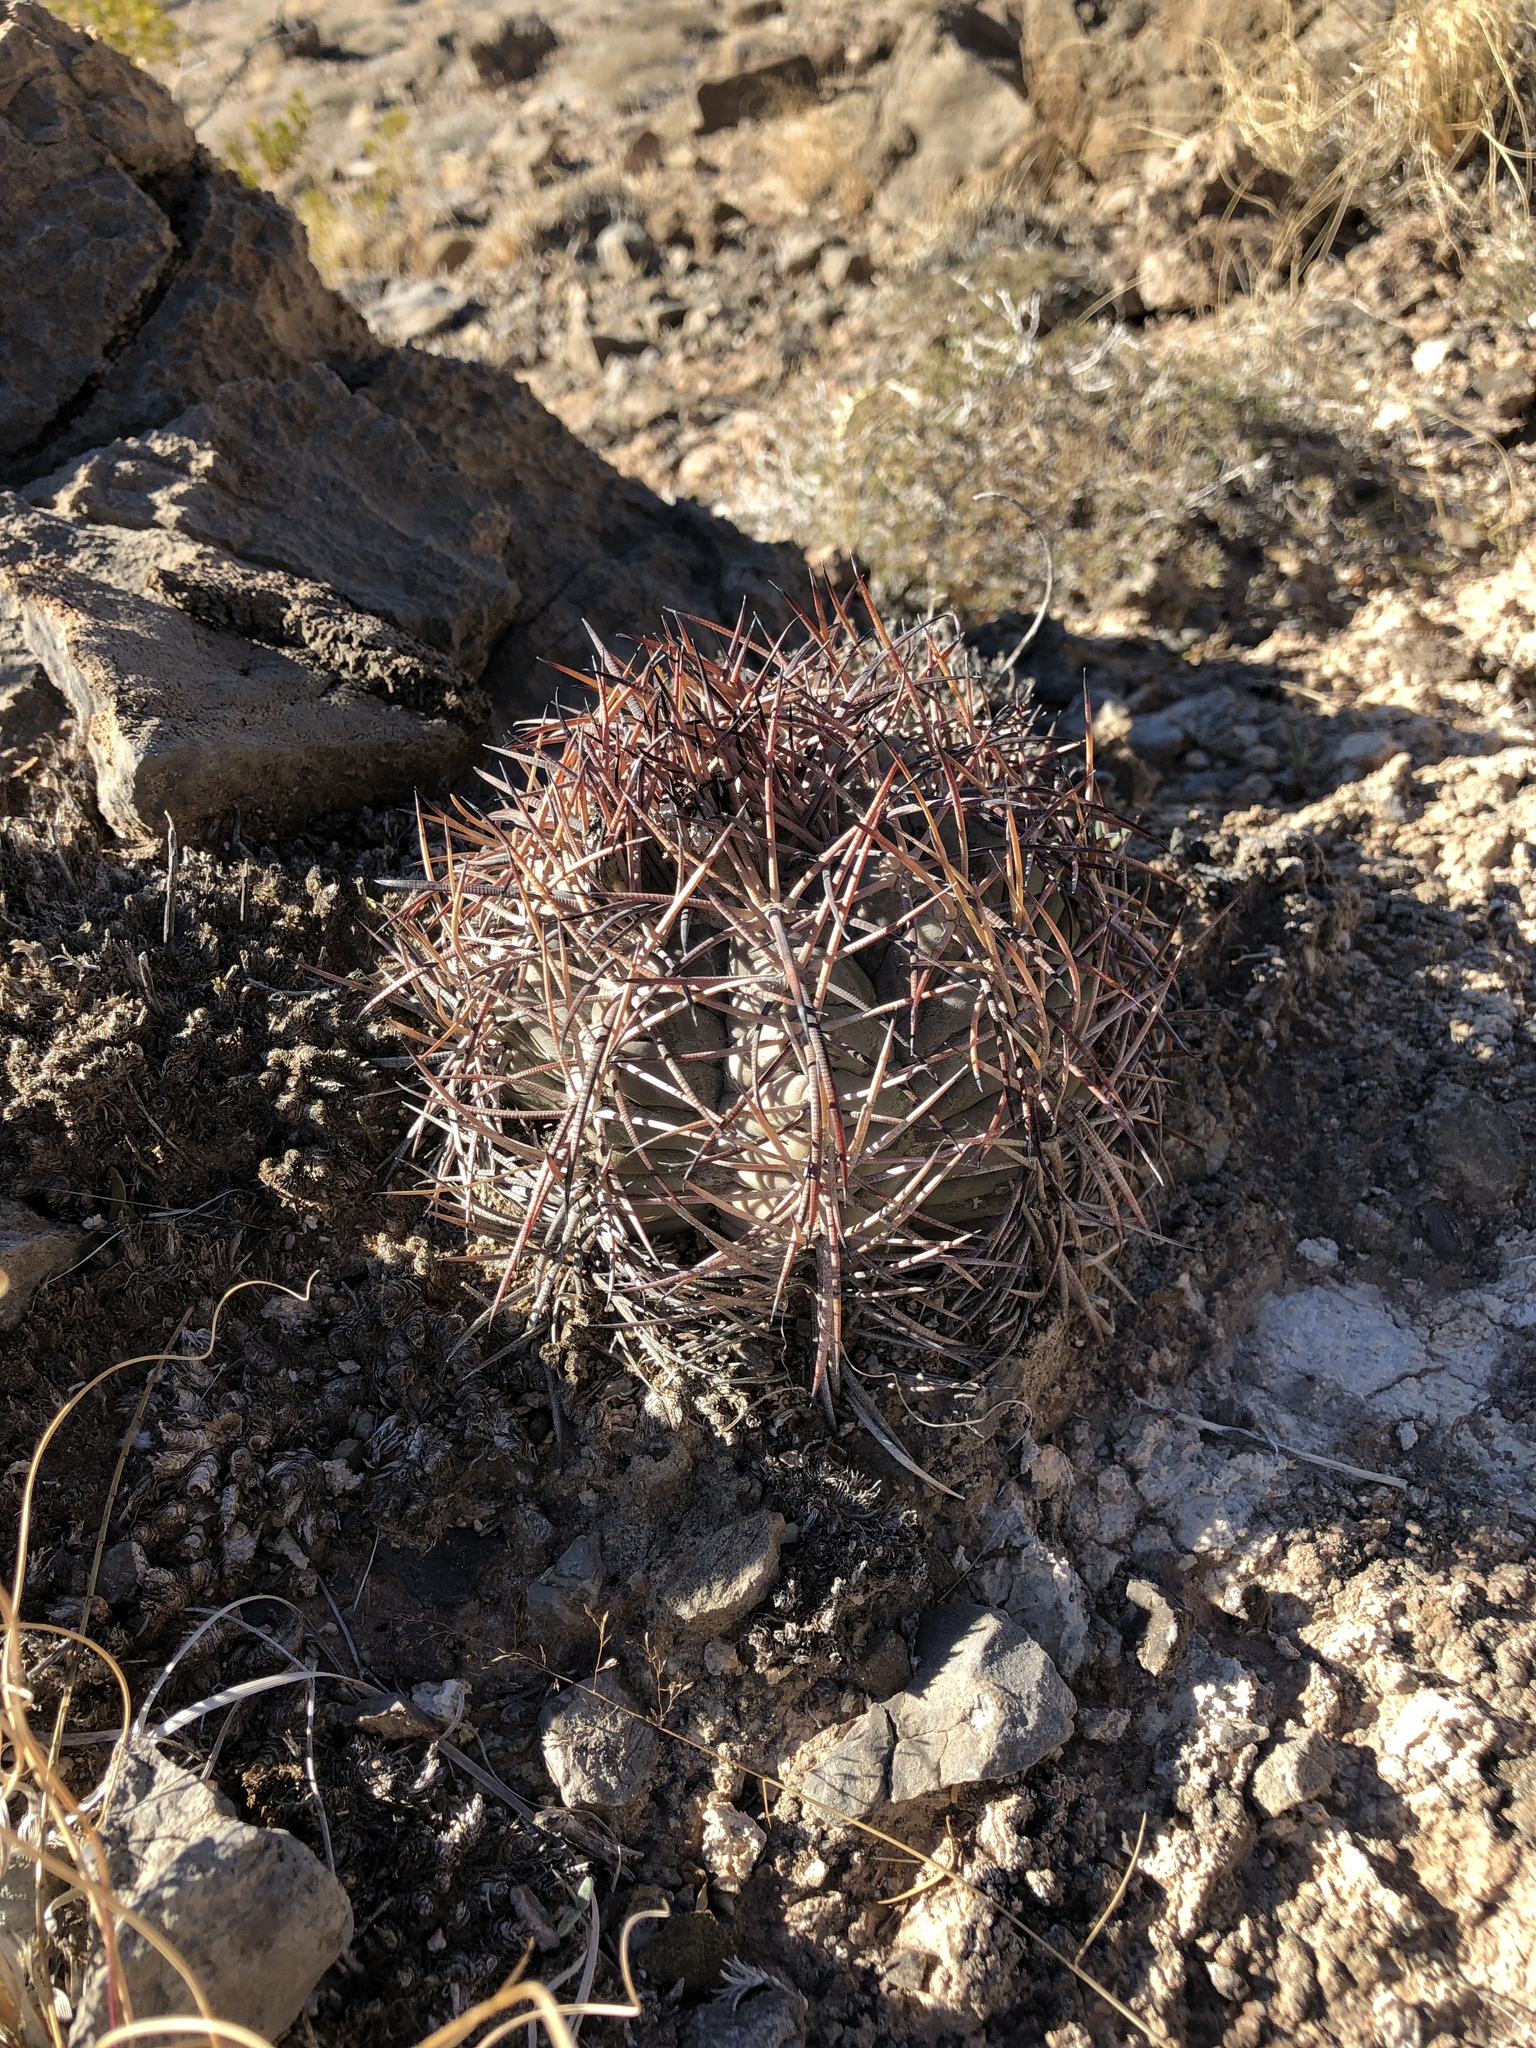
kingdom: Plantae
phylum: Tracheophyta
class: Magnoliopsida
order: Caryophyllales
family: Cactaceae
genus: Echinocactus
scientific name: Echinocactus horizonthalonius
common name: Devilshead
